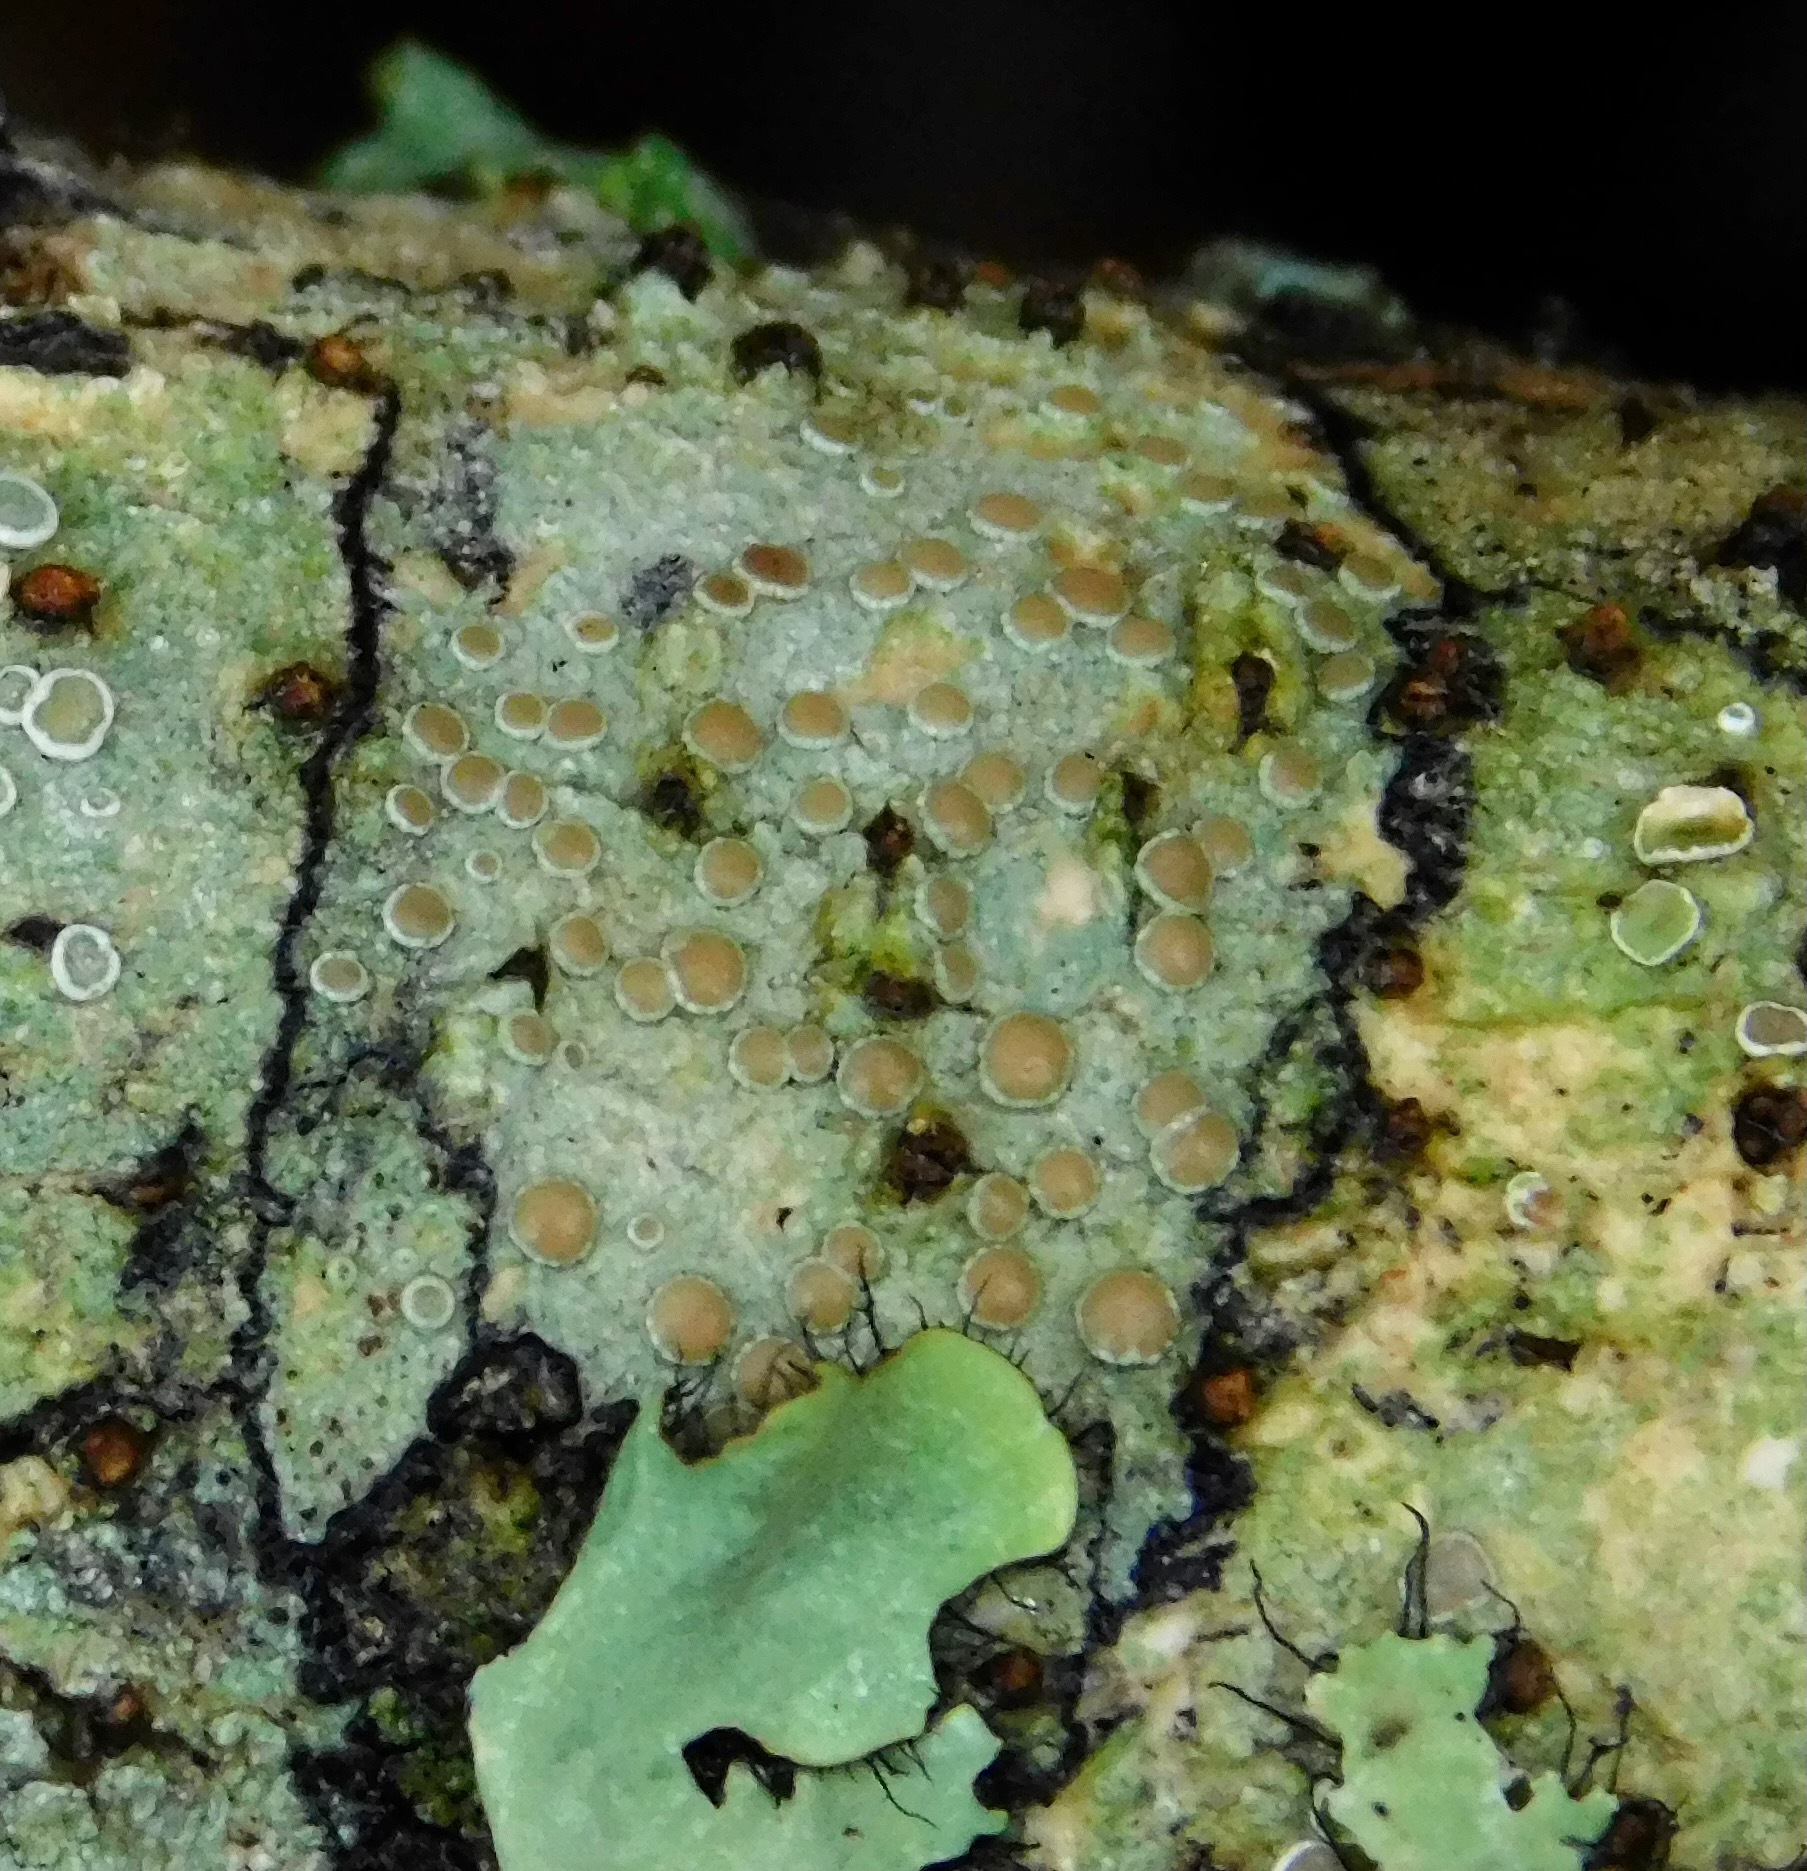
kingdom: Fungi
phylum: Ascomycota
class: Lecanoromycetes
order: Lecanorales
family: Lecanoraceae
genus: Lecanora
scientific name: Lecanora caesiorubella
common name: Frosted rim-lichen
